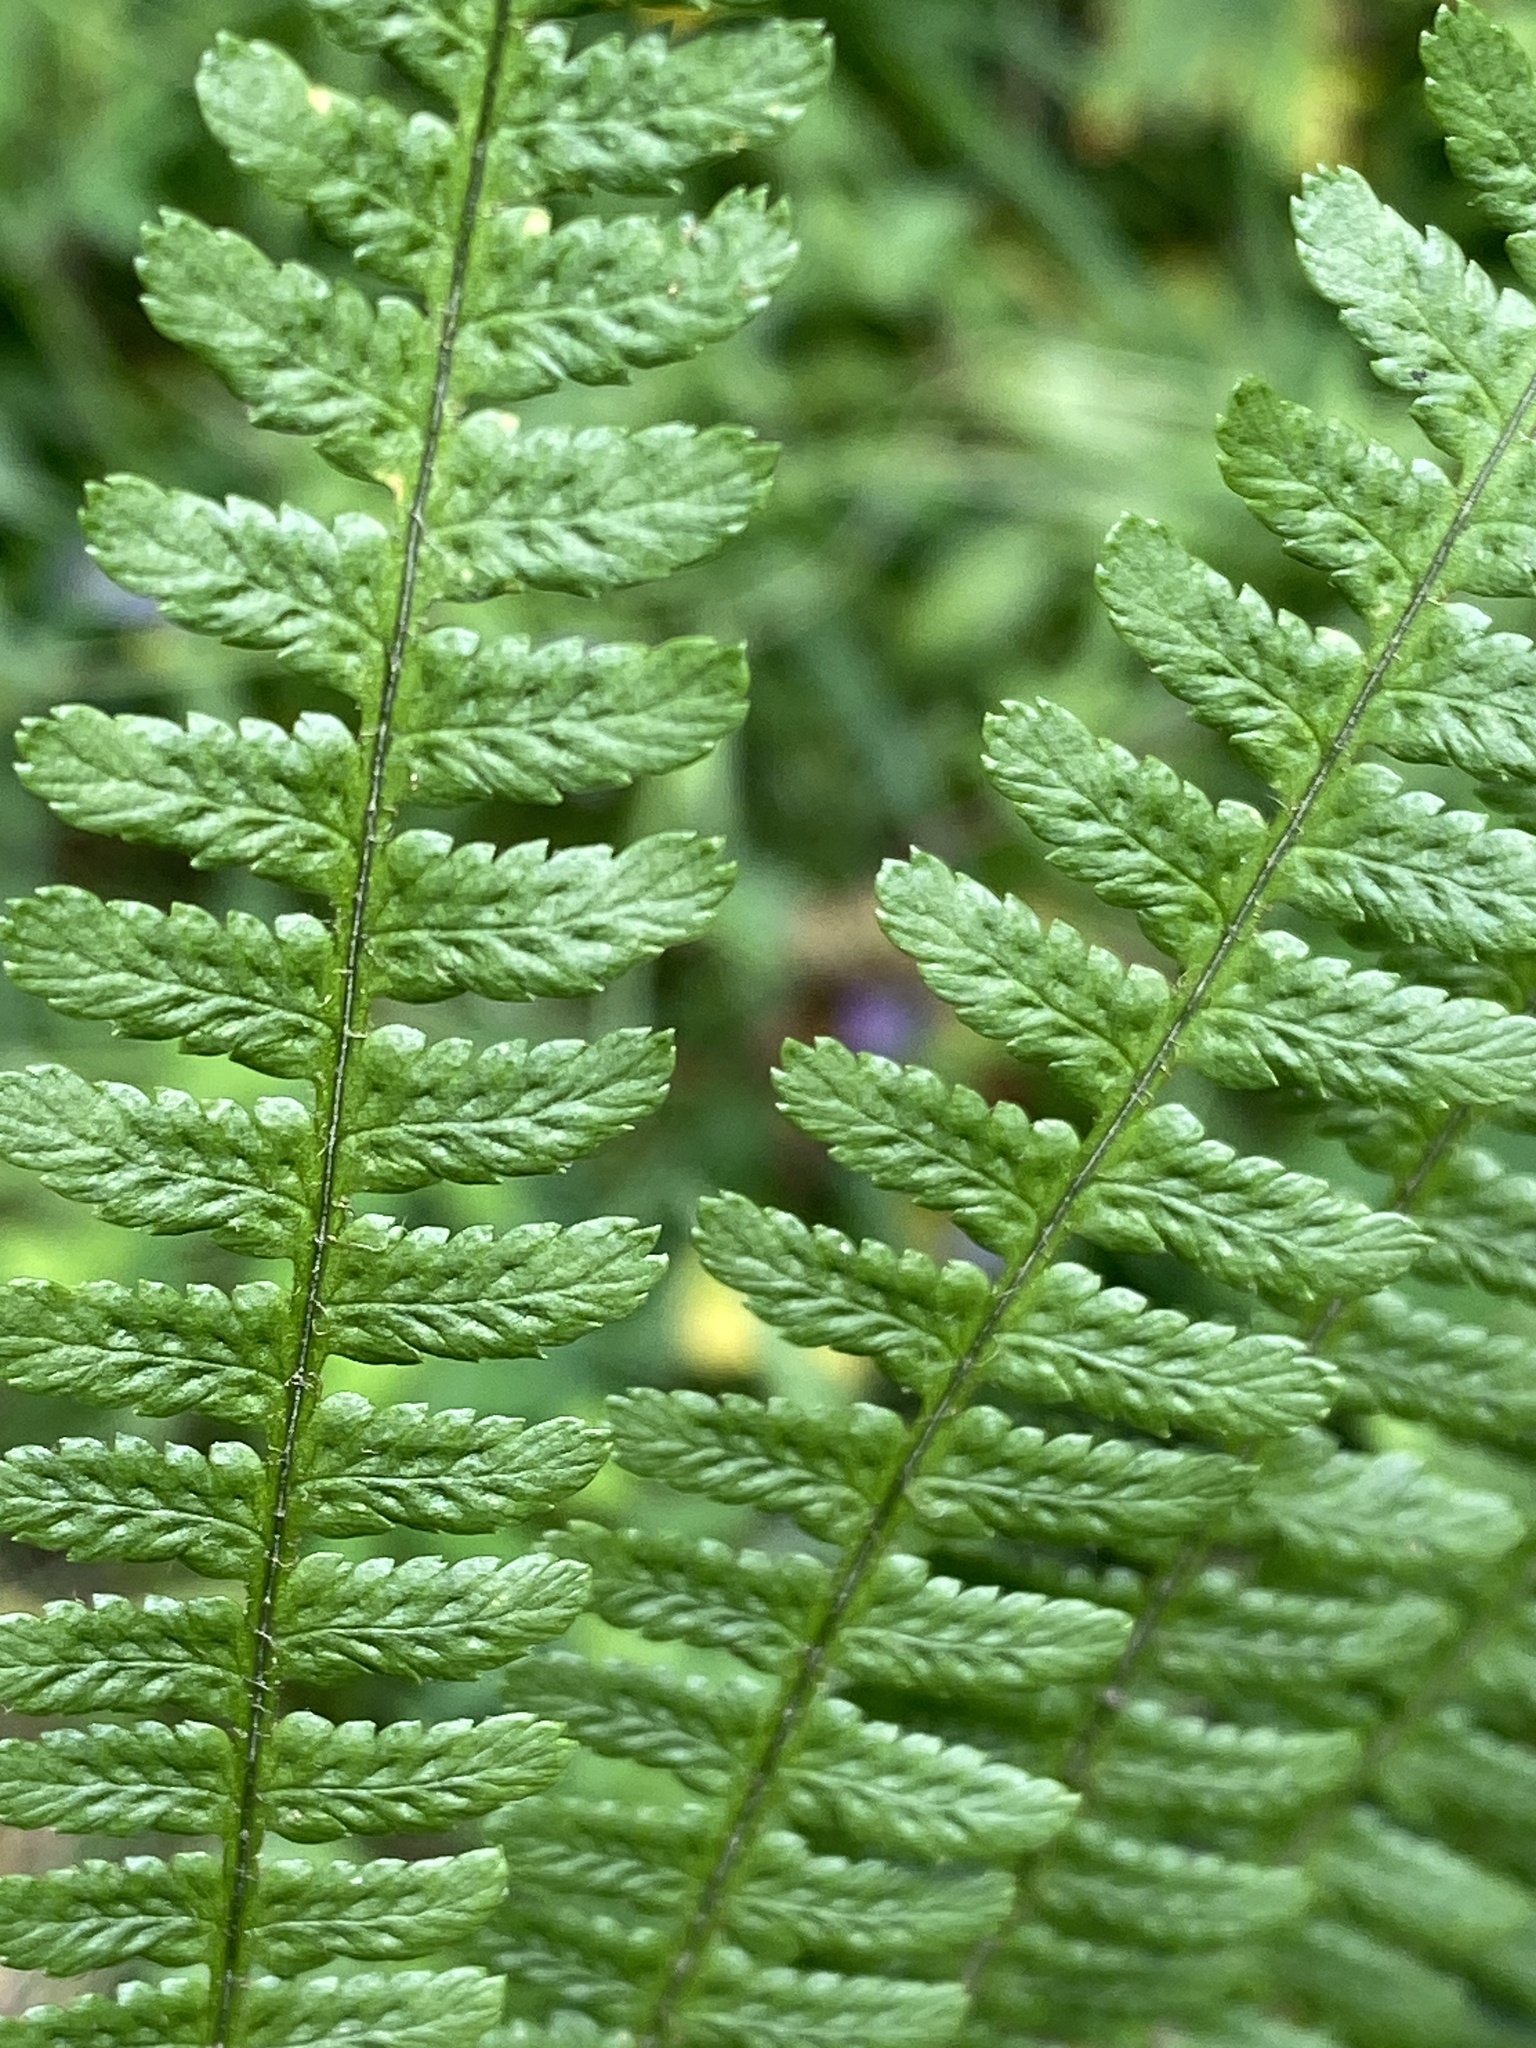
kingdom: Plantae
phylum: Tracheophyta
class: Polypodiopsida
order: Polypodiales
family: Dryopteridaceae
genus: Dryopteris
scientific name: Dryopteris filix-mas
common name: Male fern
